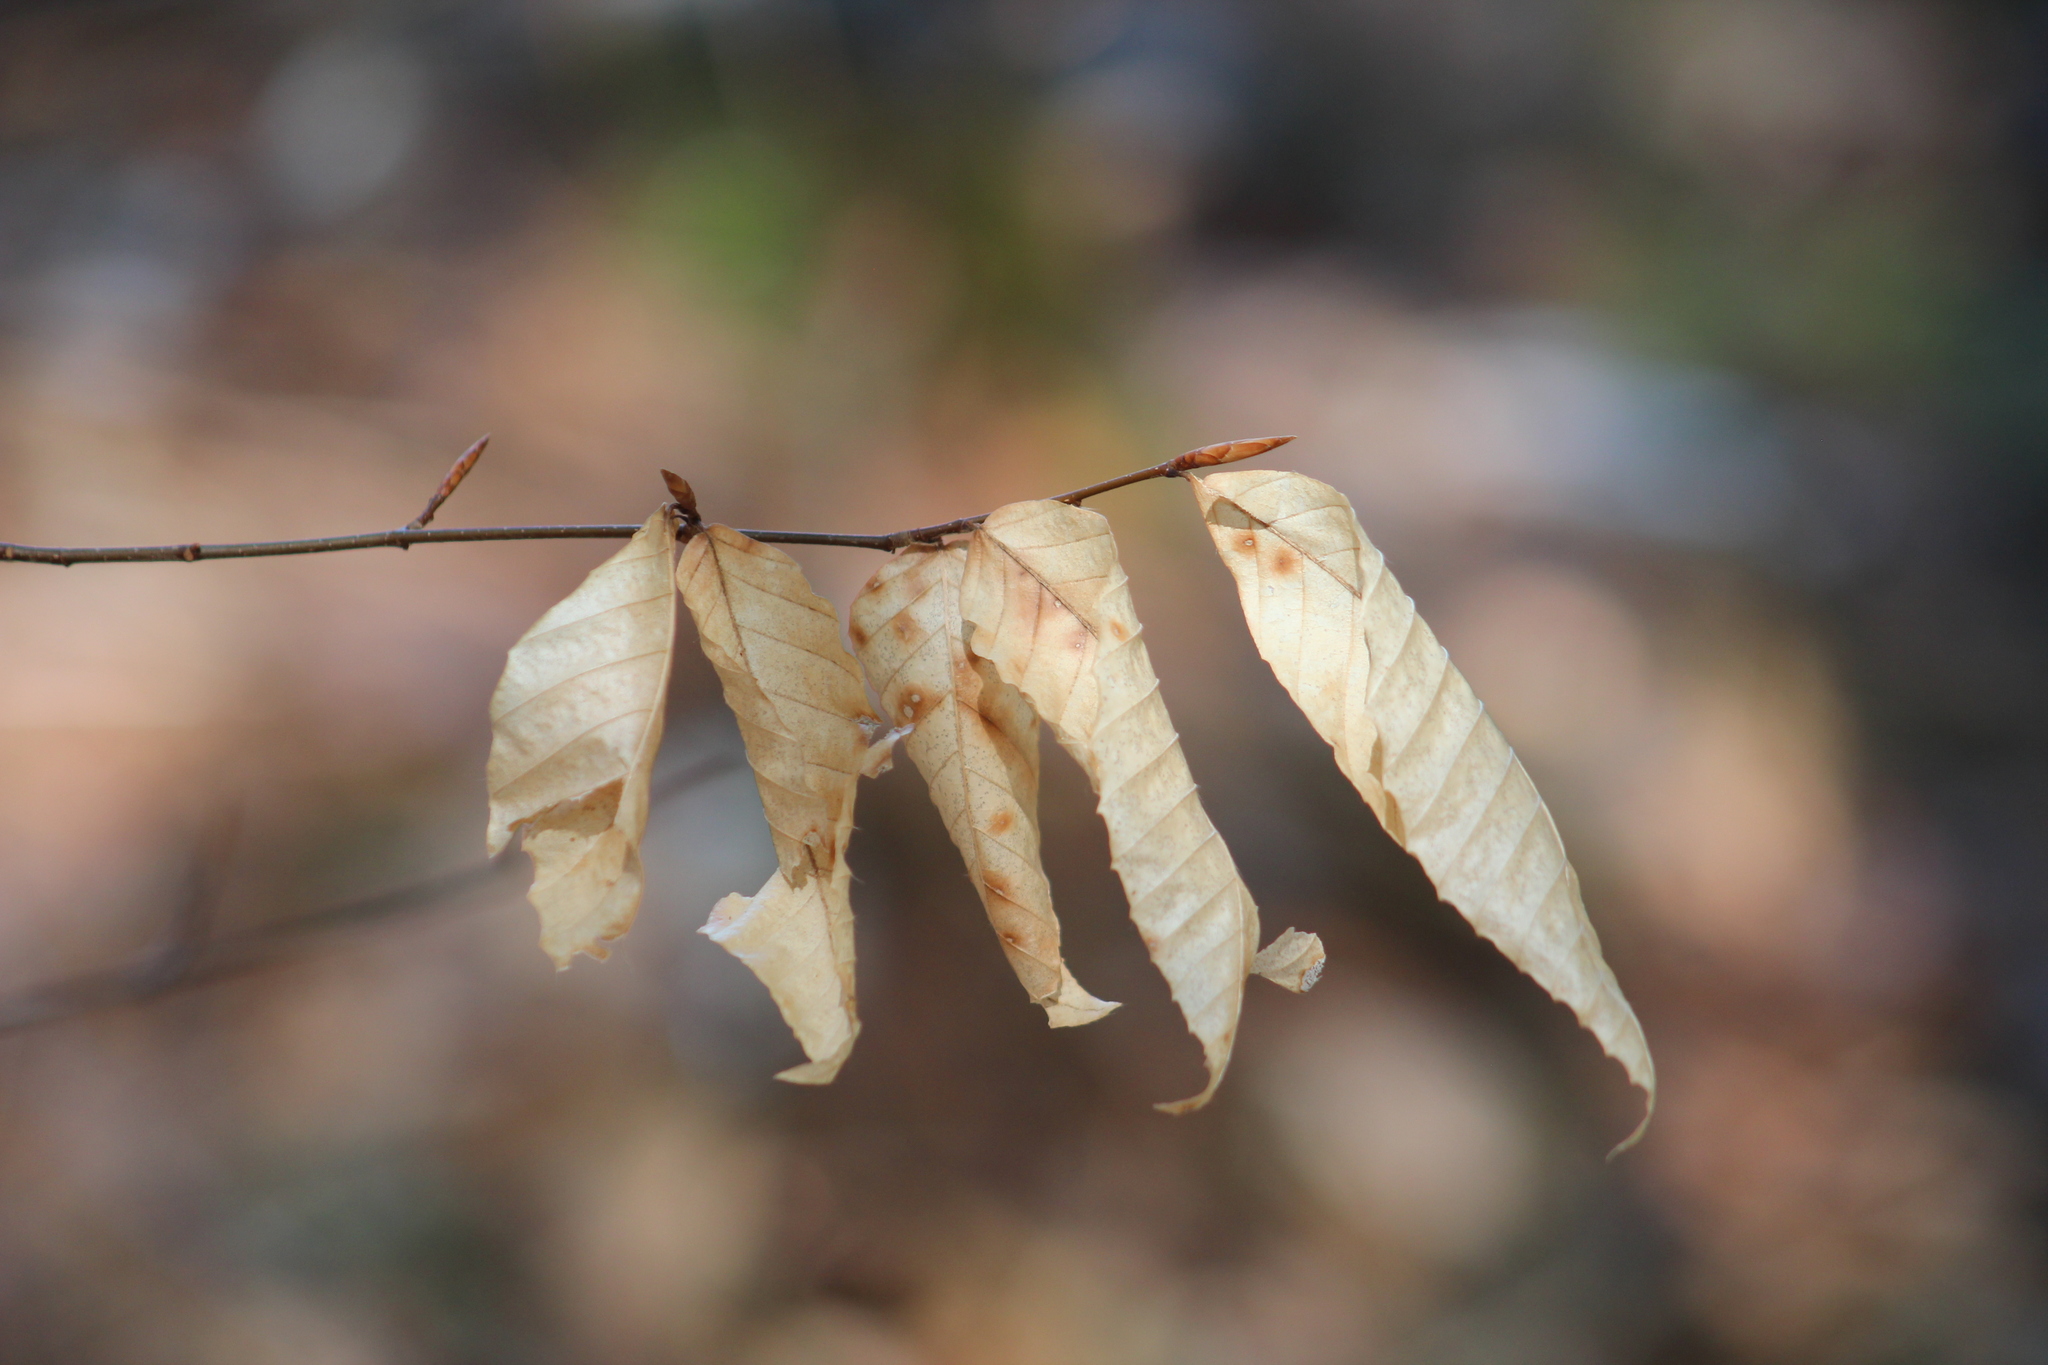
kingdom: Plantae
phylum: Tracheophyta
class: Magnoliopsida
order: Fagales
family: Fagaceae
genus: Fagus
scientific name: Fagus grandifolia
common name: American beech
